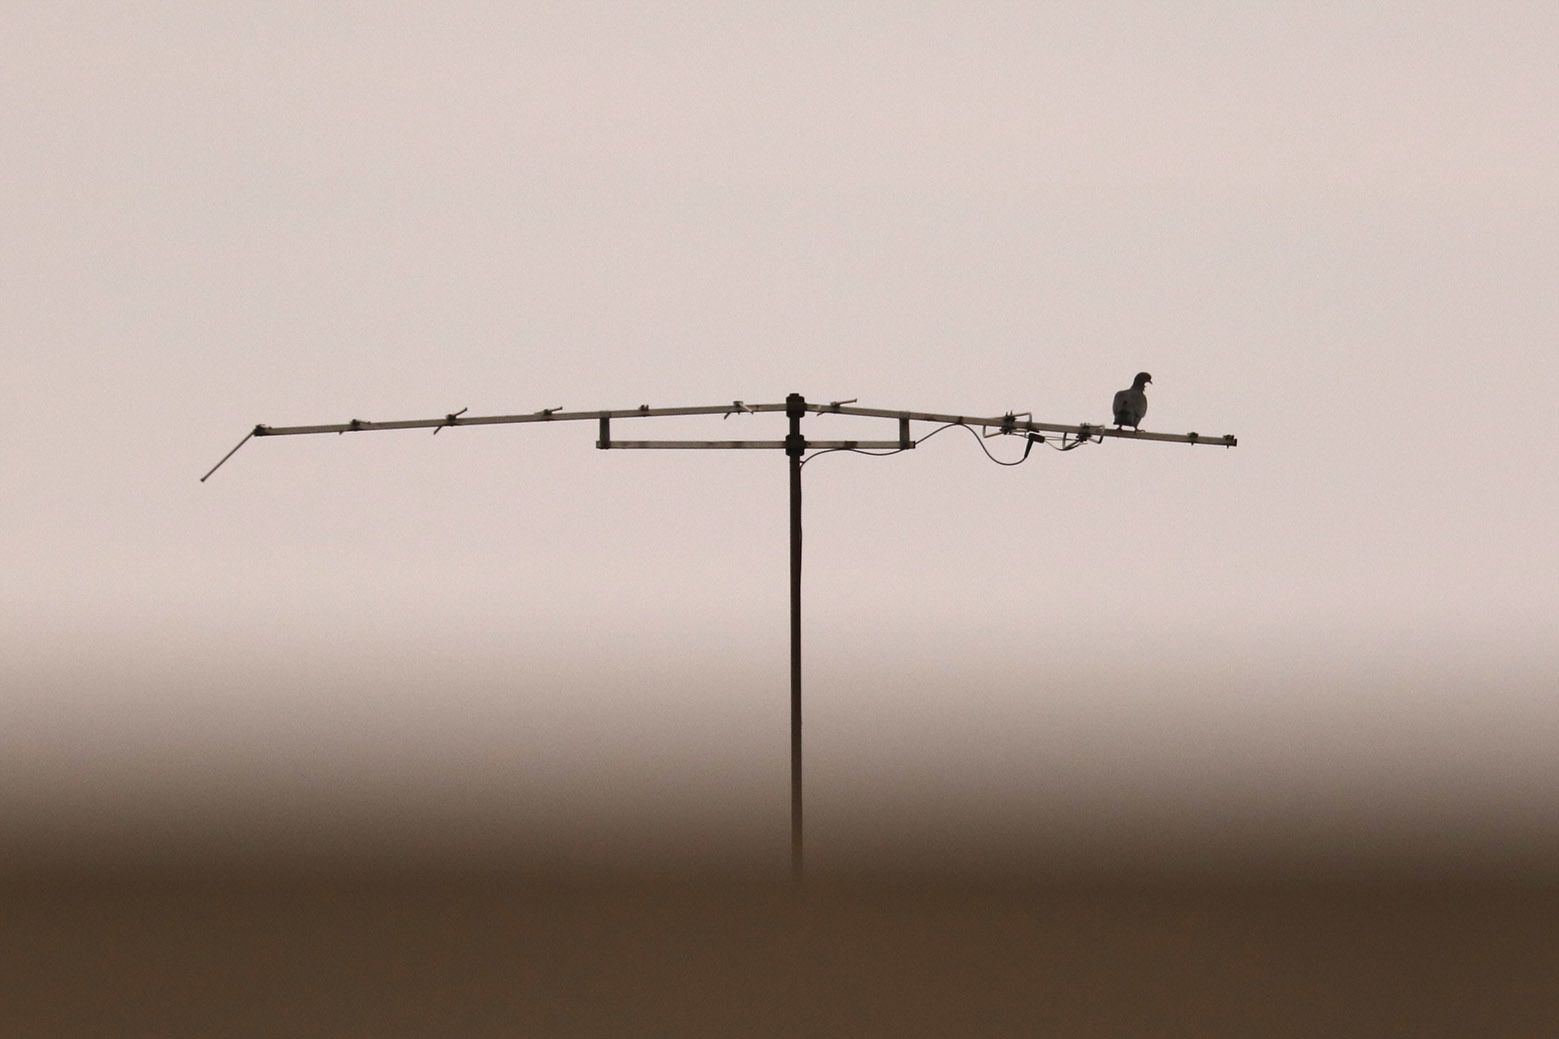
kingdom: Animalia
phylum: Chordata
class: Aves
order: Columbiformes
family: Columbidae
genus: Columba
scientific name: Columba livia
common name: Rock pigeon
